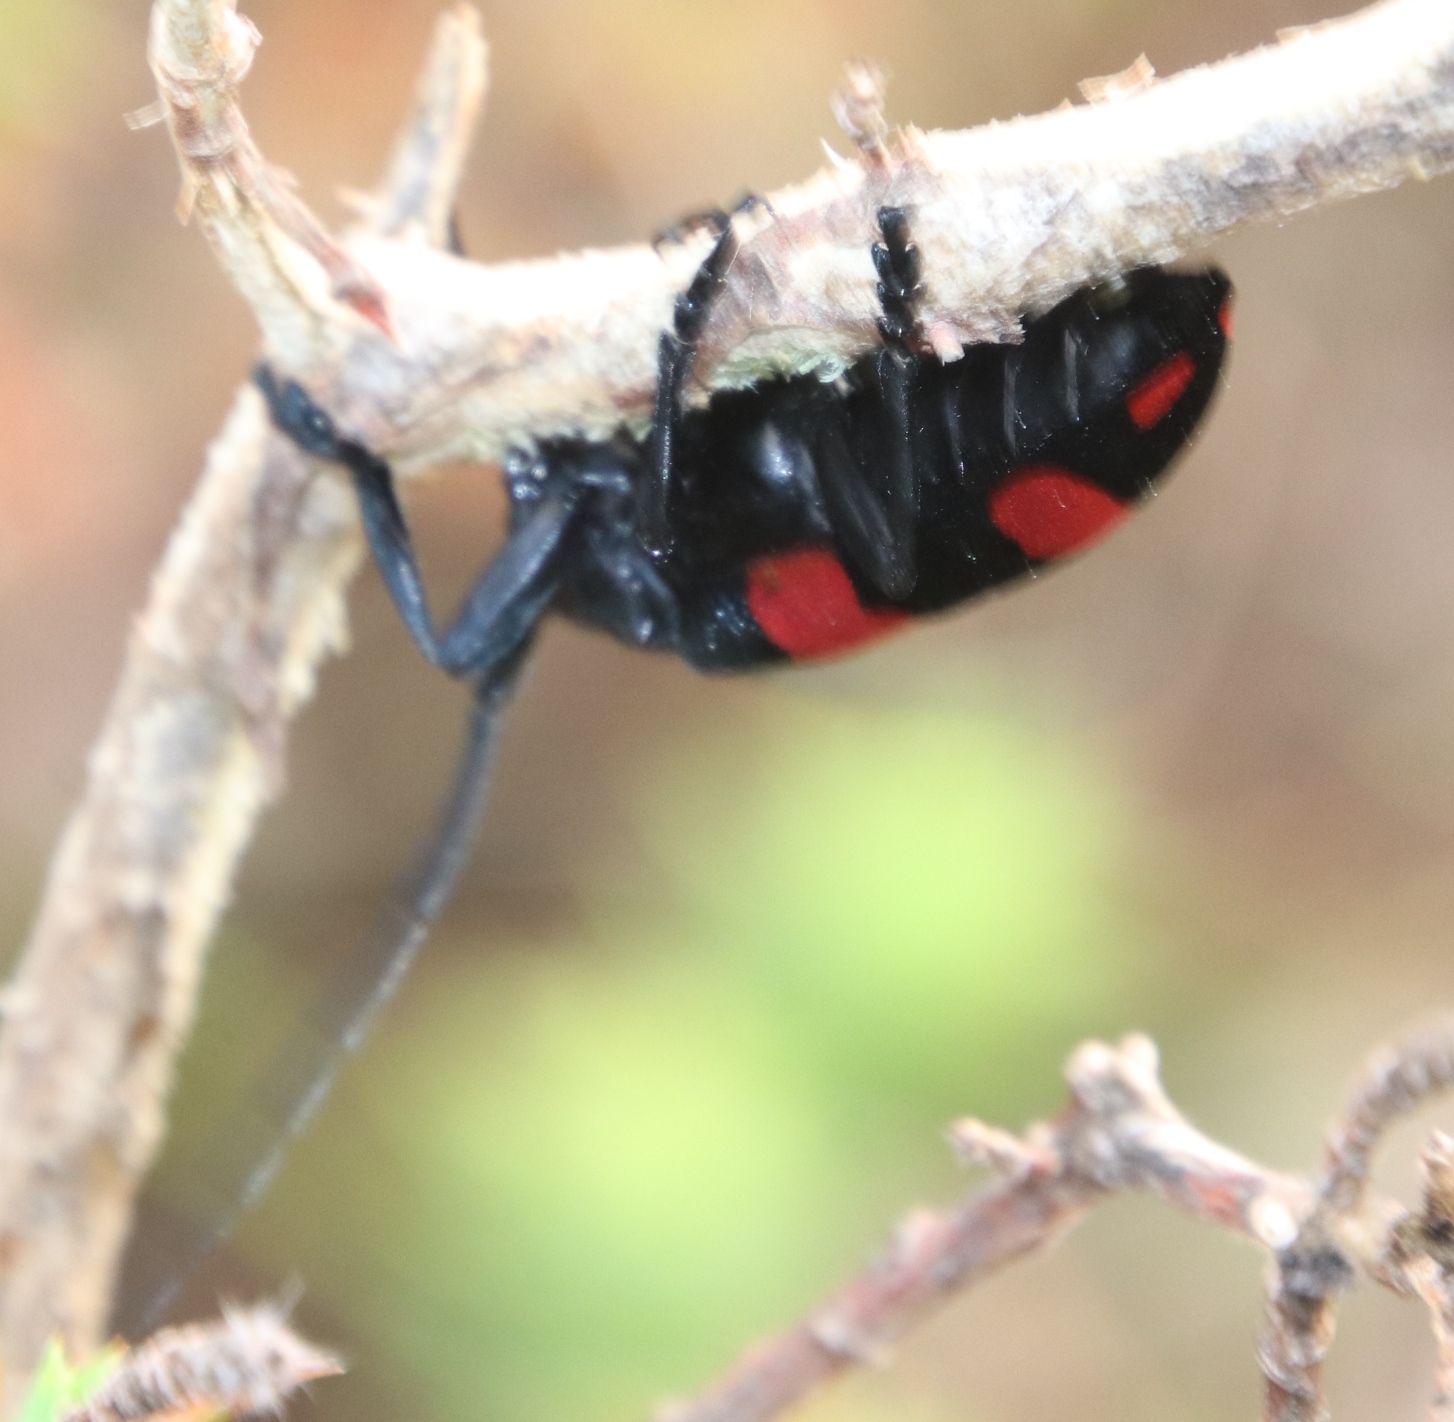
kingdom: Animalia
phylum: Arthropoda
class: Insecta
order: Coleoptera
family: Cerambycidae
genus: Ceroplesis
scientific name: Ceroplesis aethiops
